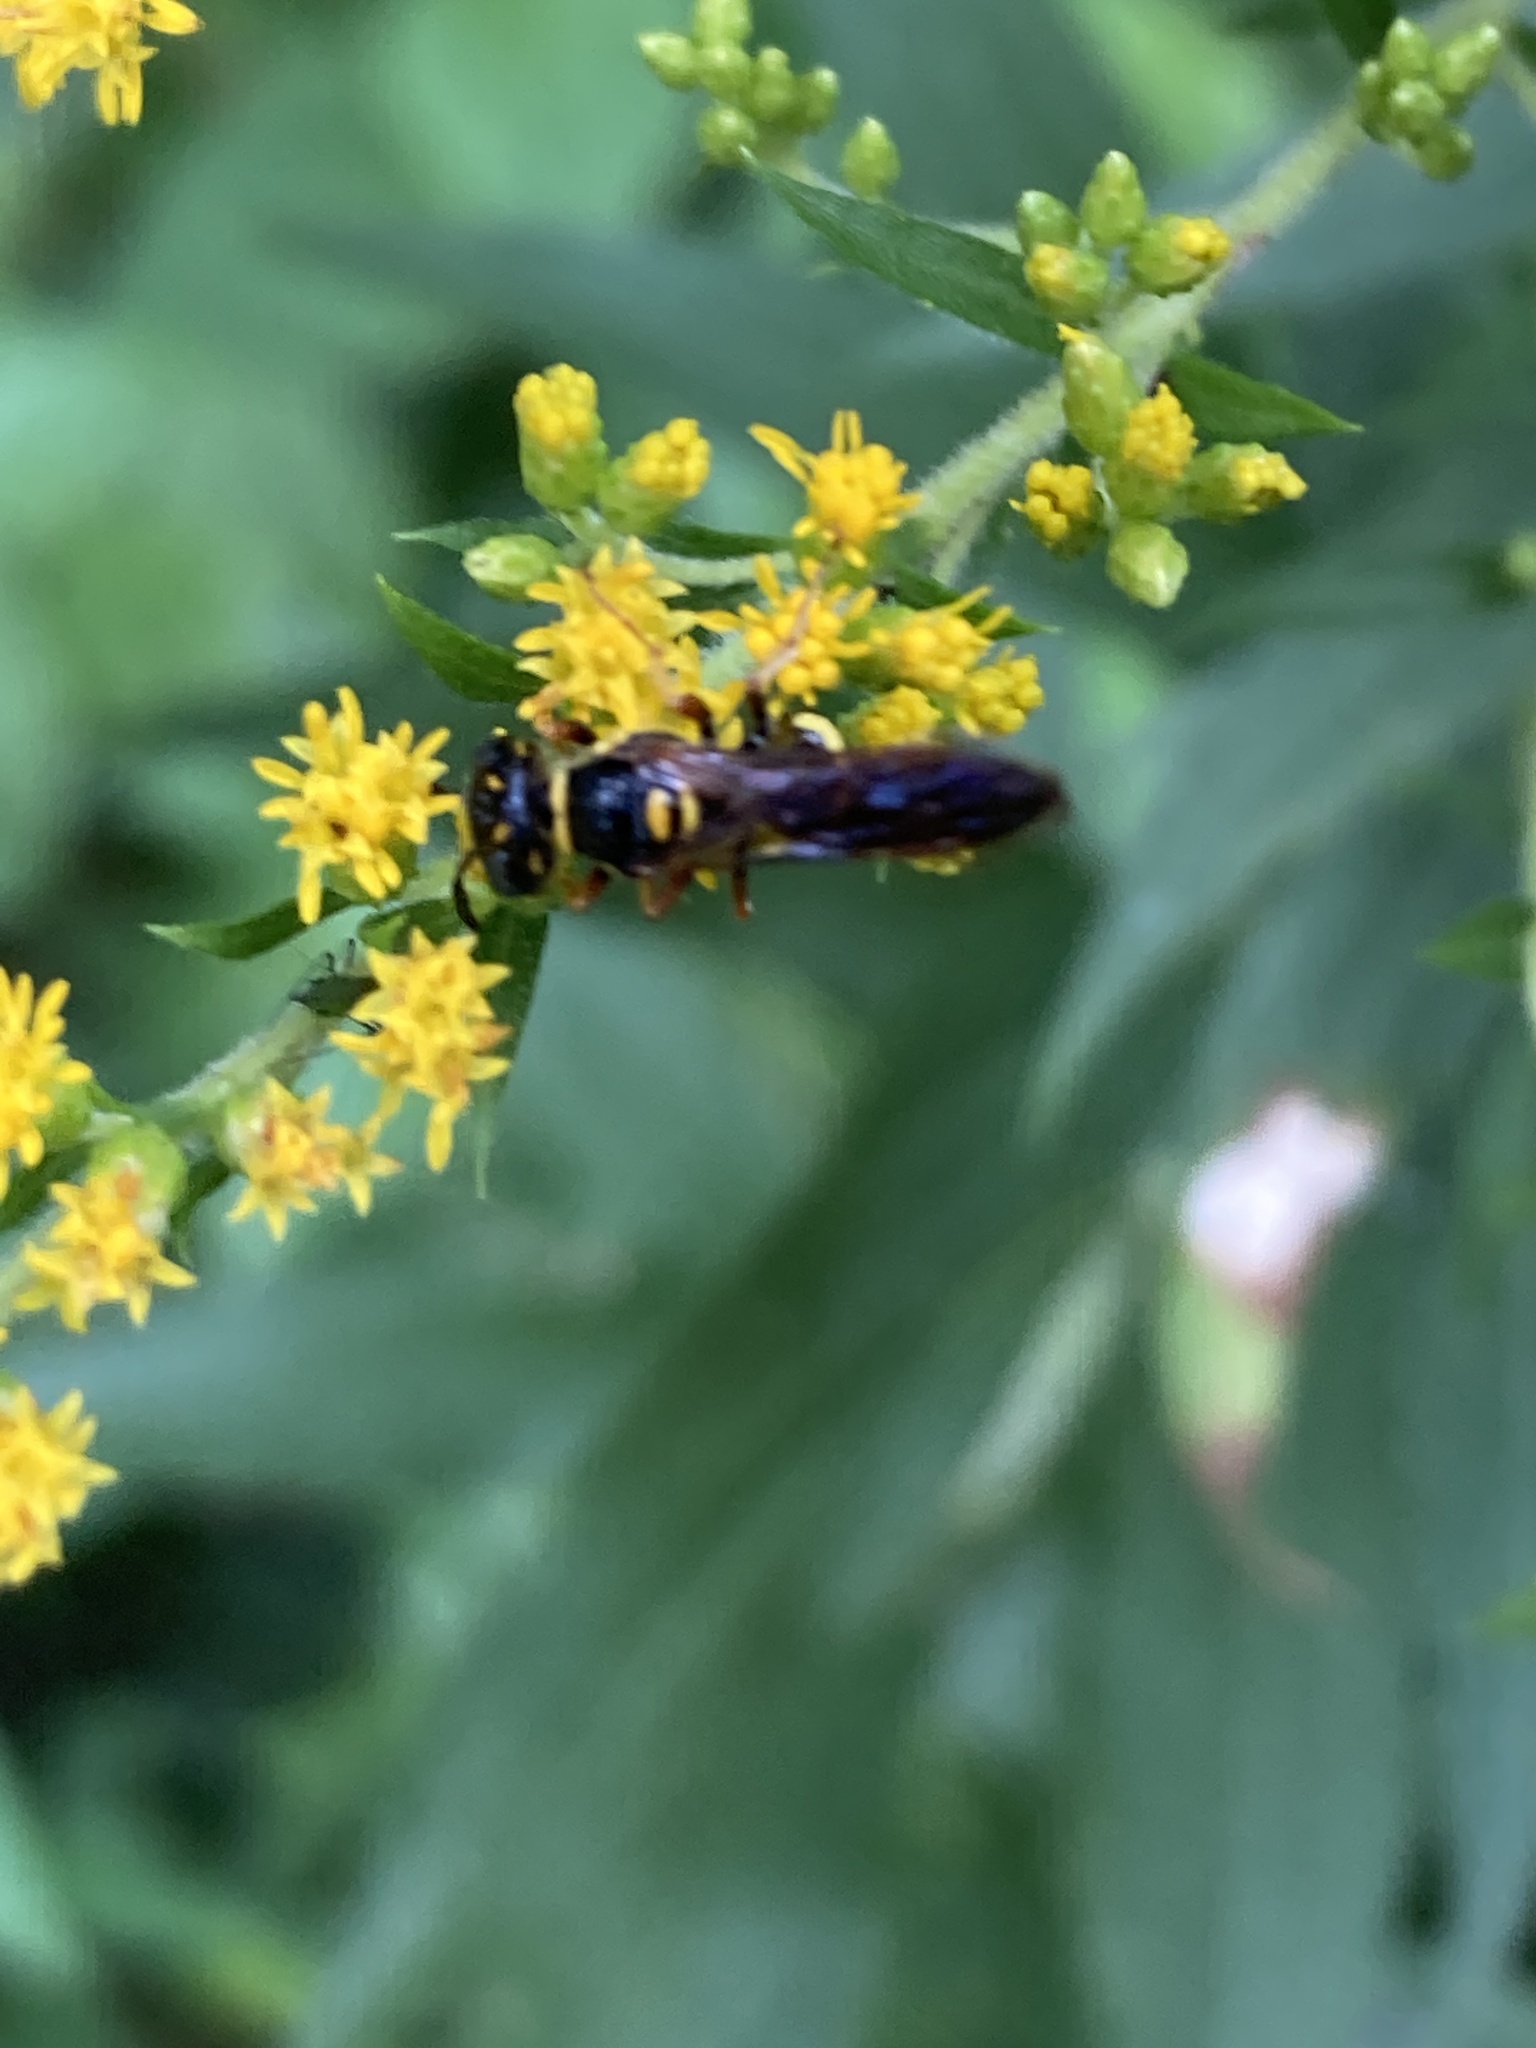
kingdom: Animalia
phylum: Arthropoda
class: Insecta
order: Hymenoptera
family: Crabronidae
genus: Philanthus
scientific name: Philanthus gibbosus
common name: Humped beewolf
